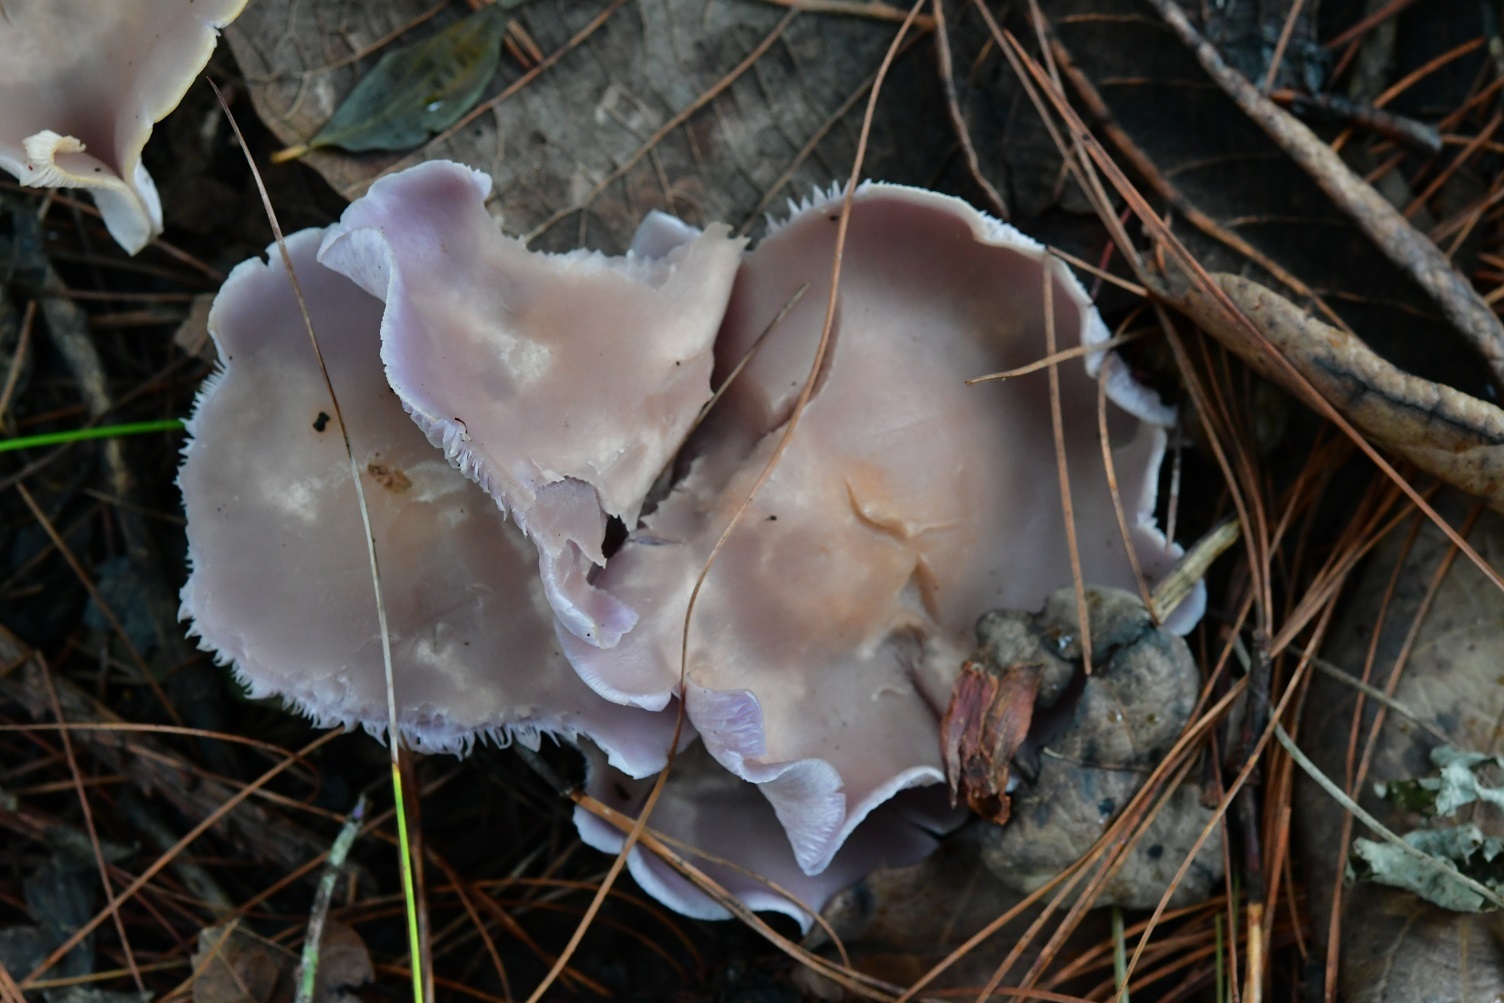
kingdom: Fungi
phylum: Basidiomycota
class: Agaricomycetes
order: Agaricales
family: Tricholomataceae
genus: Collybia
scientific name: Collybia
